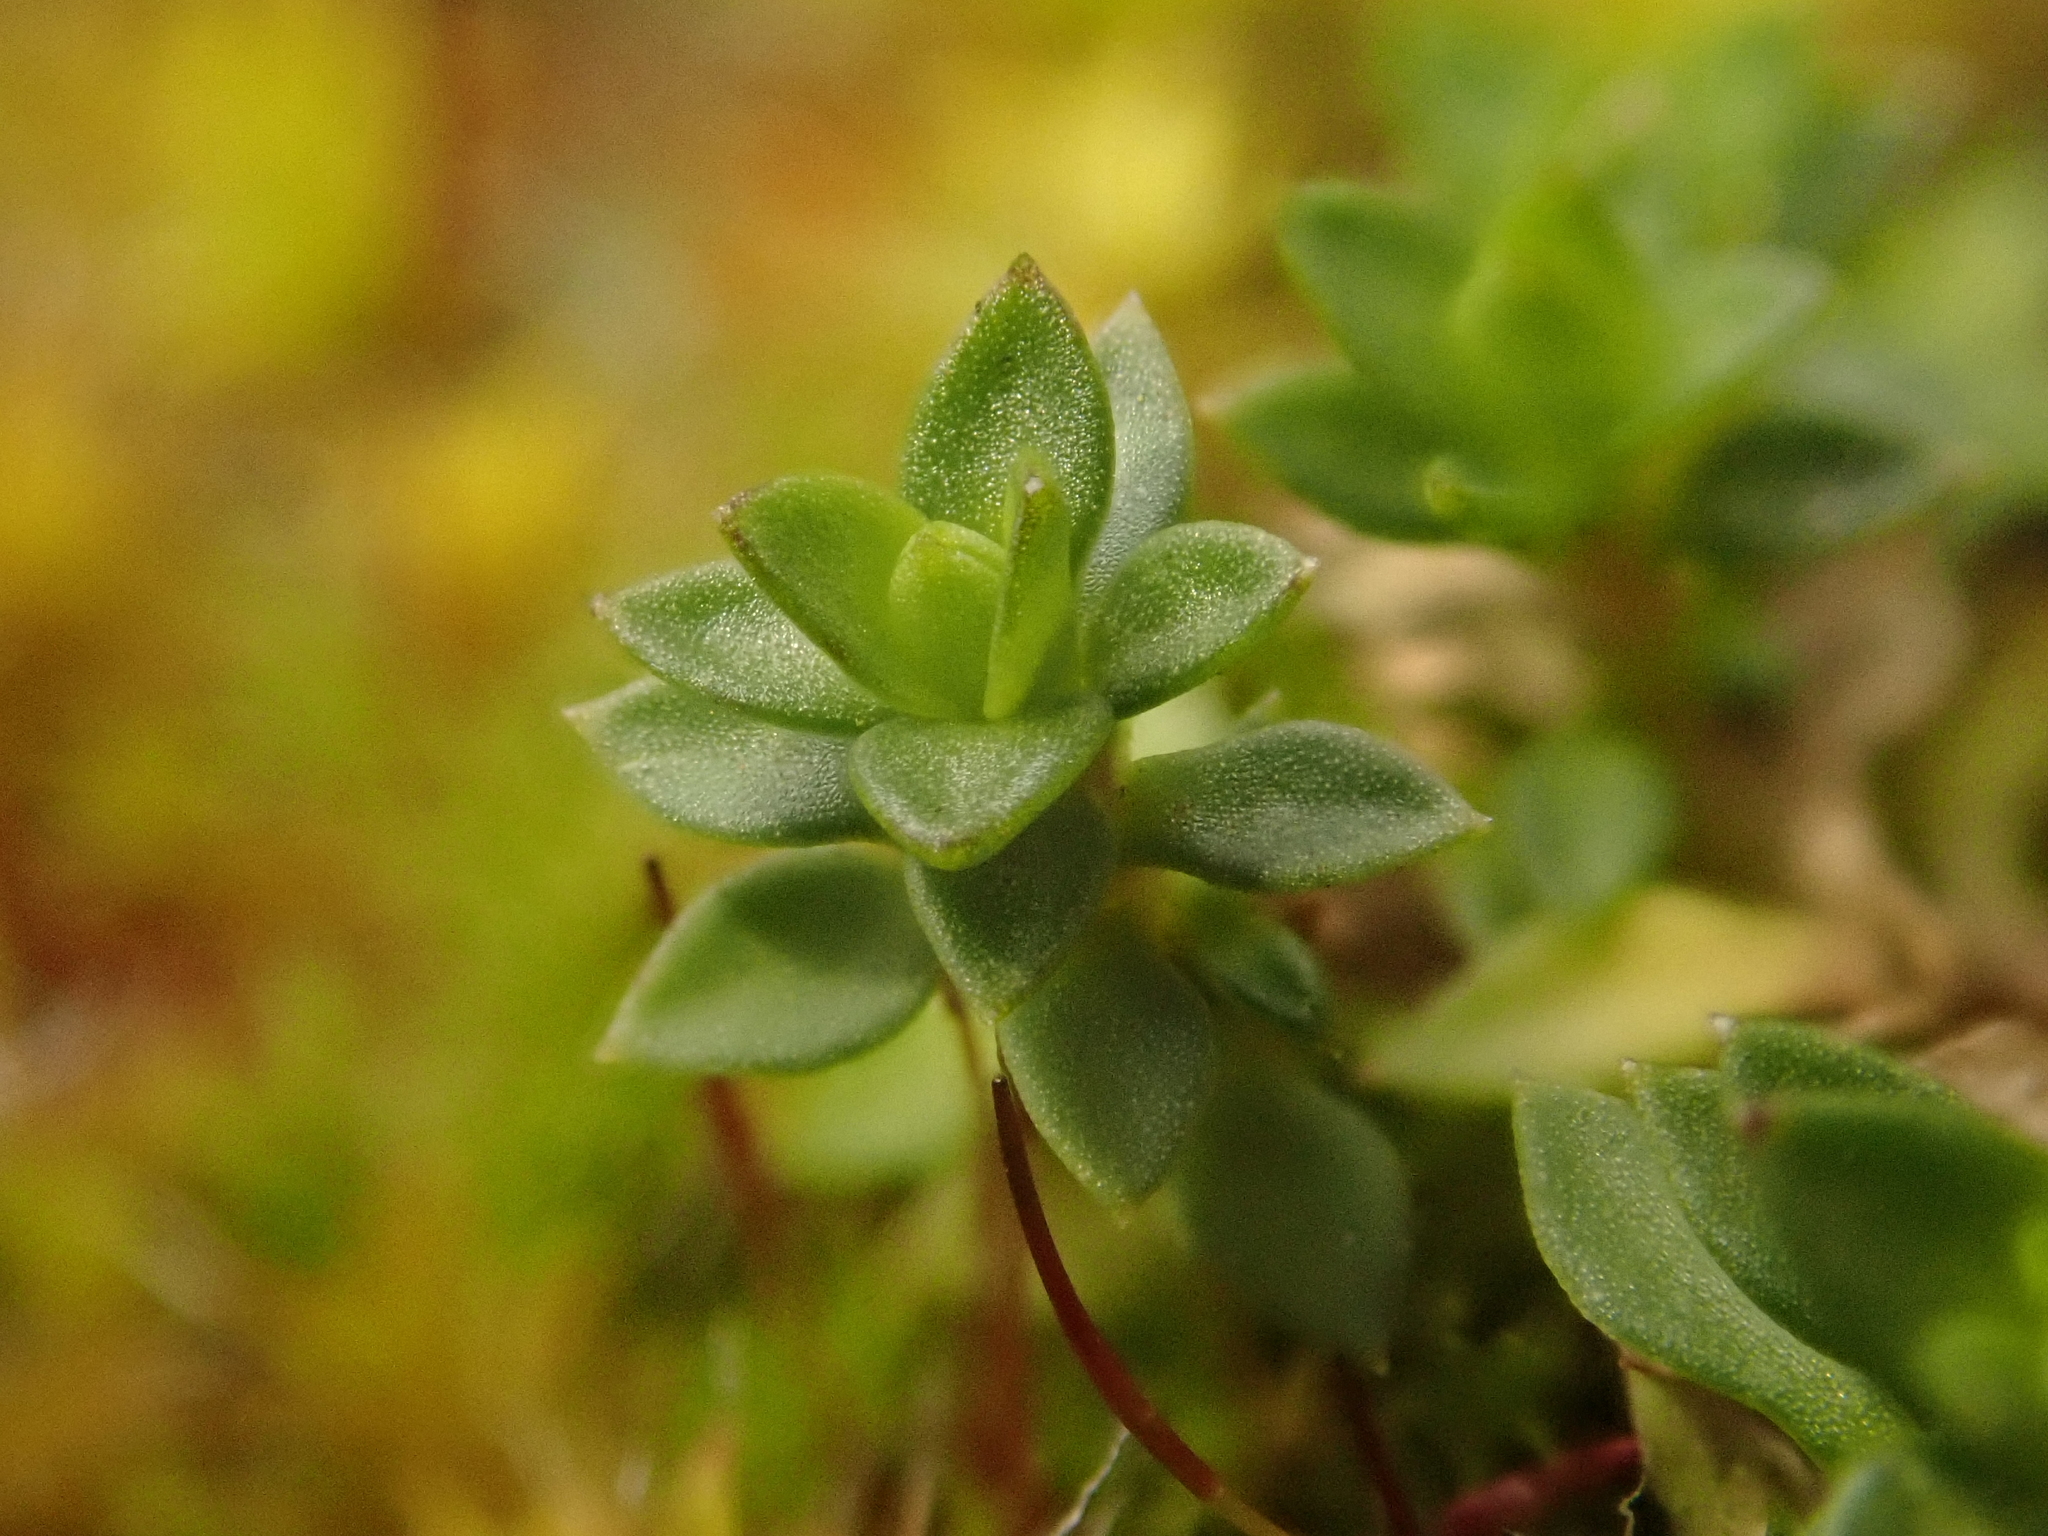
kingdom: Plantae
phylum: Tracheophyta
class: Magnoliopsida
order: Caryophyllales
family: Caryophyllaceae
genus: Arenaria
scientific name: Arenaria serpyllifolia
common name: Thyme-leaved sandwort
